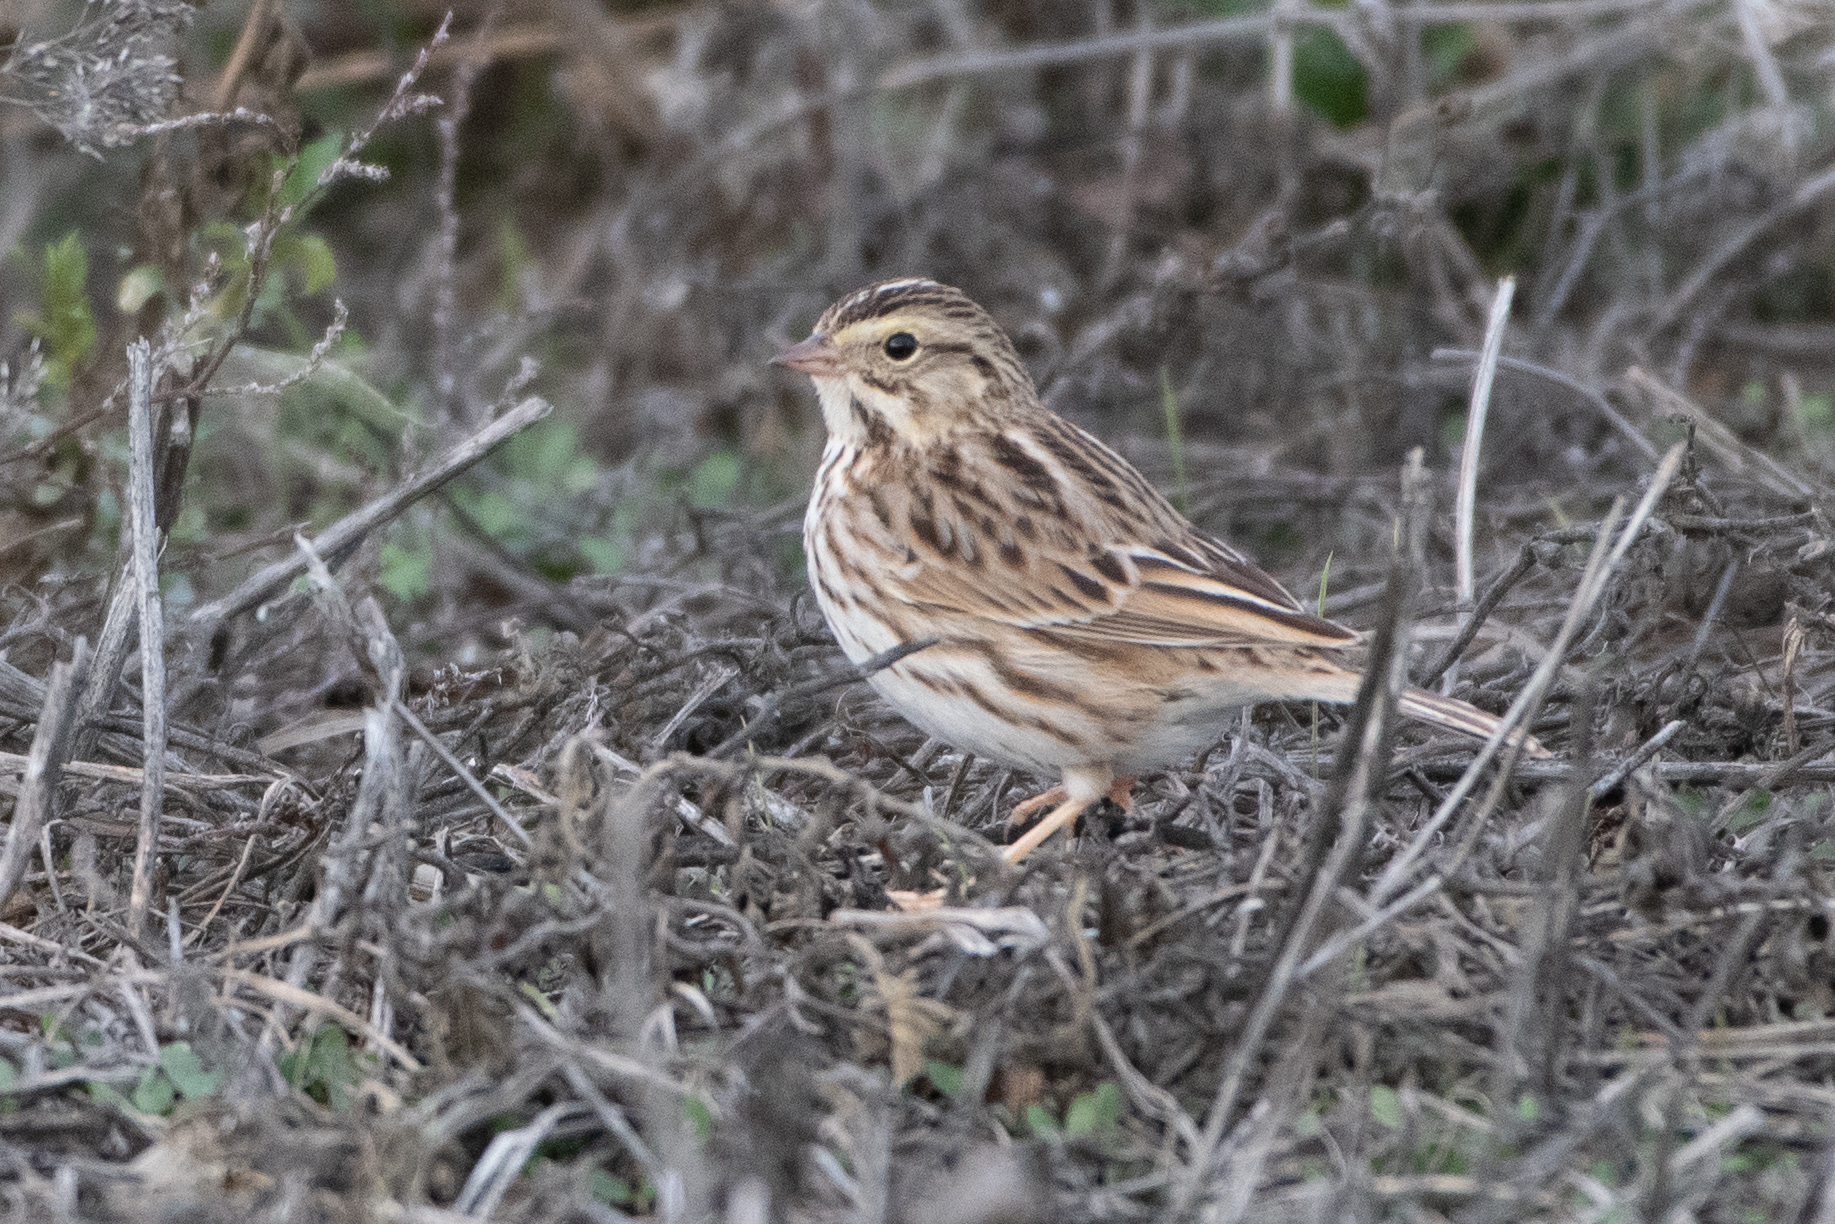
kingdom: Animalia
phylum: Chordata
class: Aves
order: Passeriformes
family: Passerellidae
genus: Passerculus
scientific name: Passerculus sandwichensis
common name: Savannah sparrow
